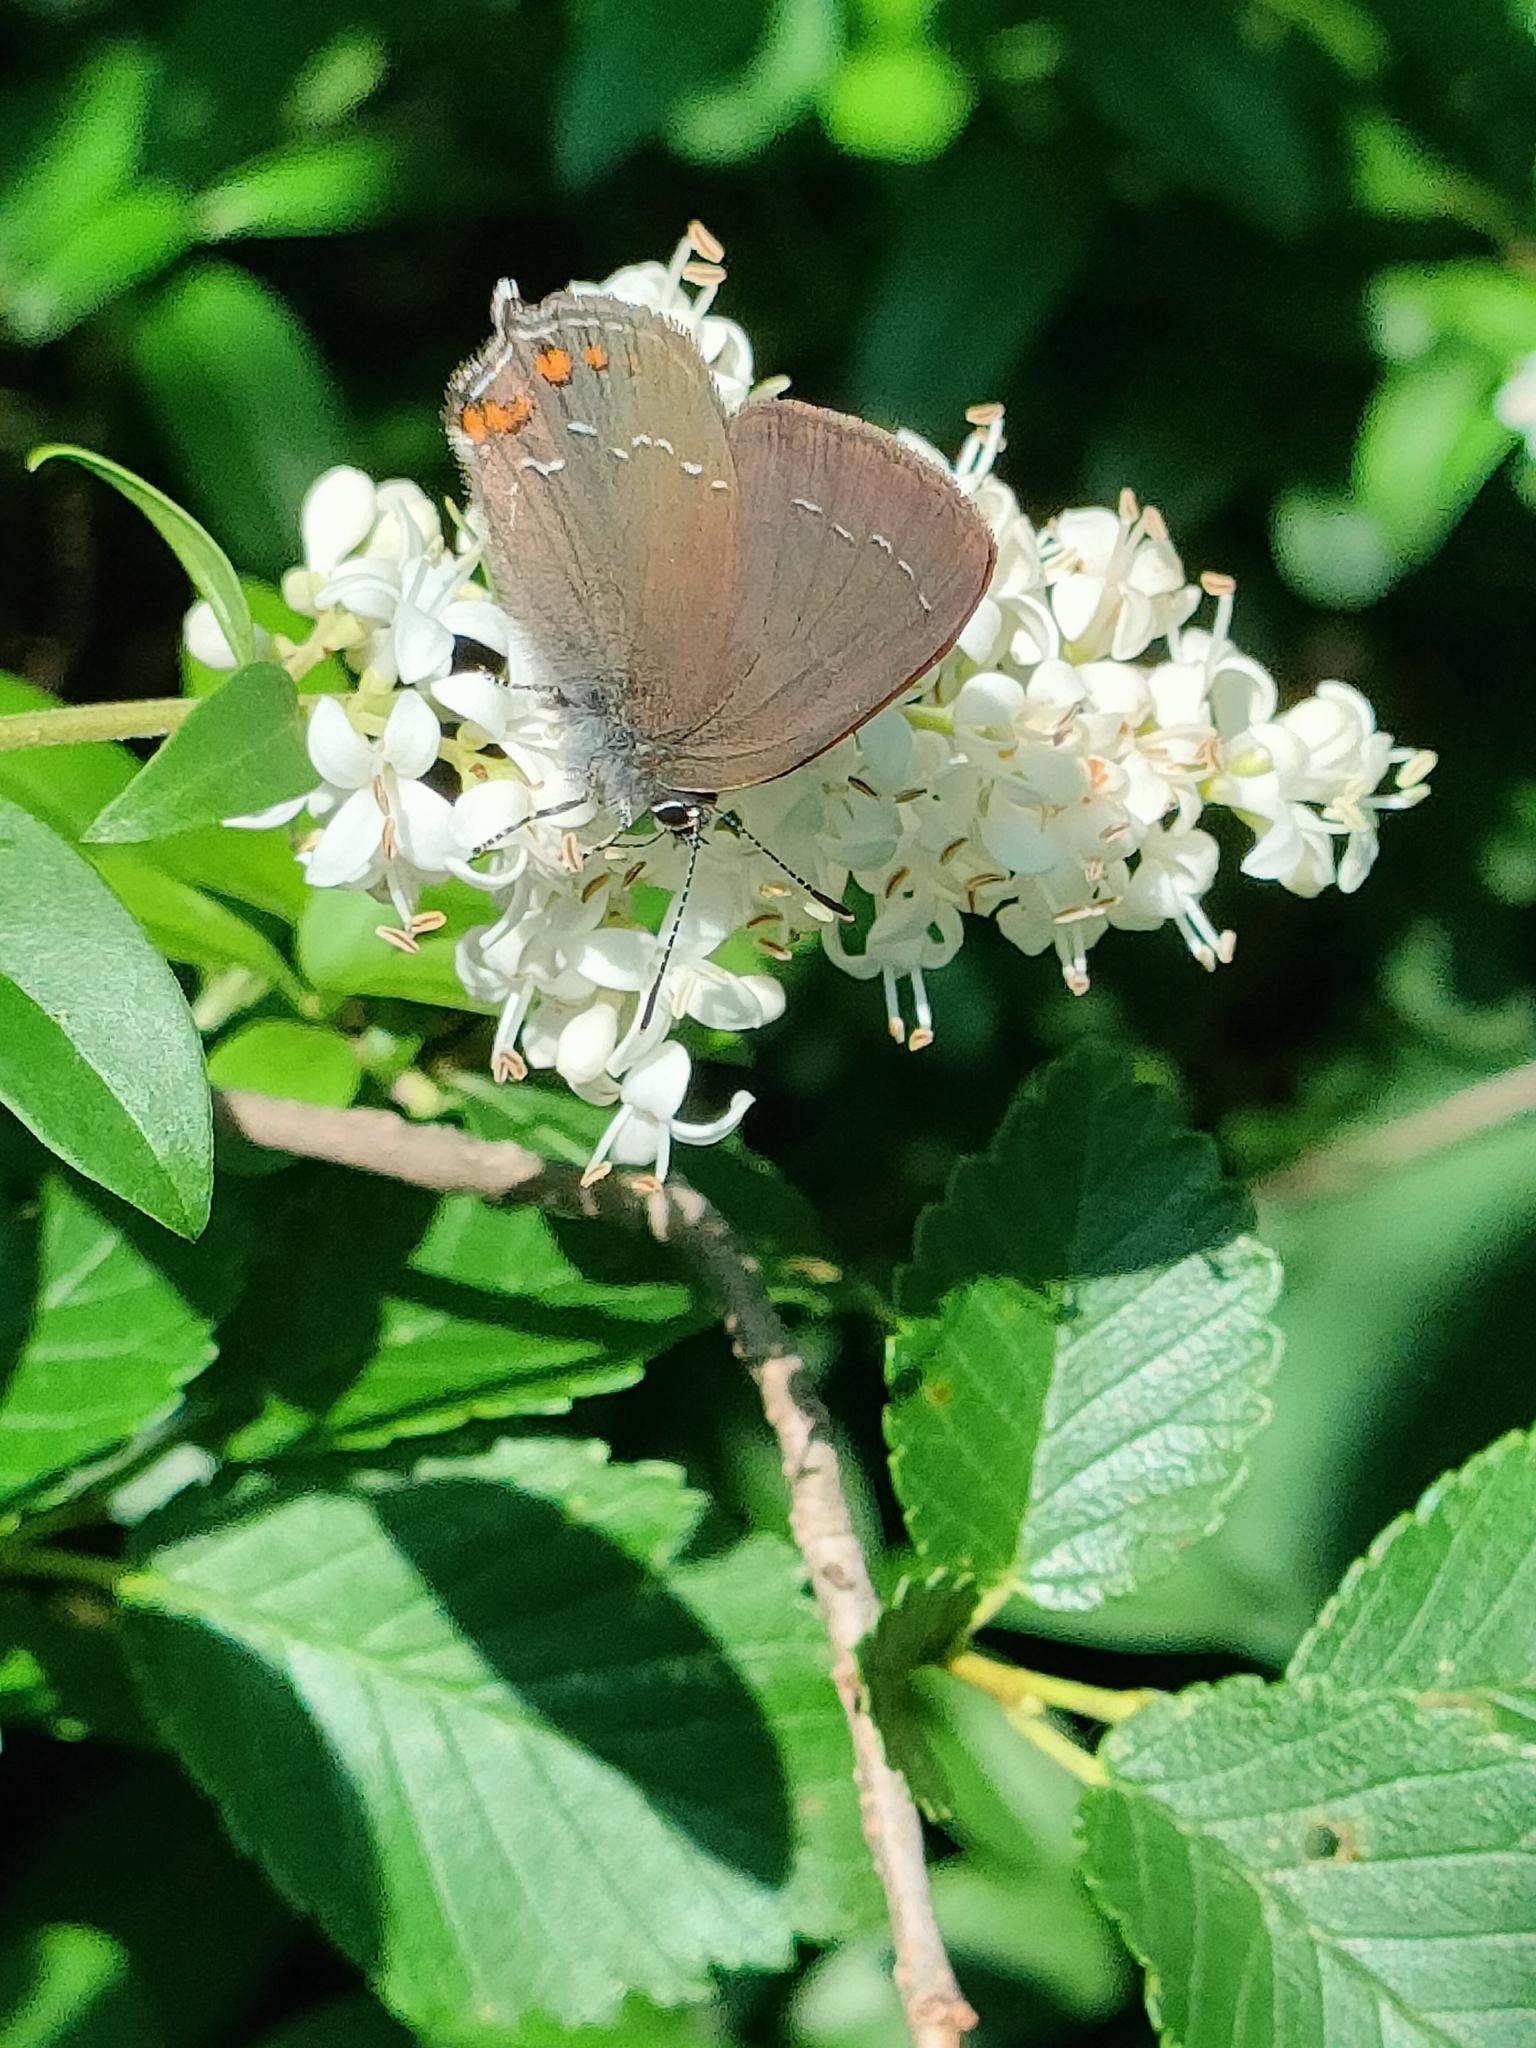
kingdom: Animalia
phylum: Arthropoda
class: Insecta
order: Lepidoptera
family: Lycaenidae
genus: Nordmannia
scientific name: Nordmannia ilicis
